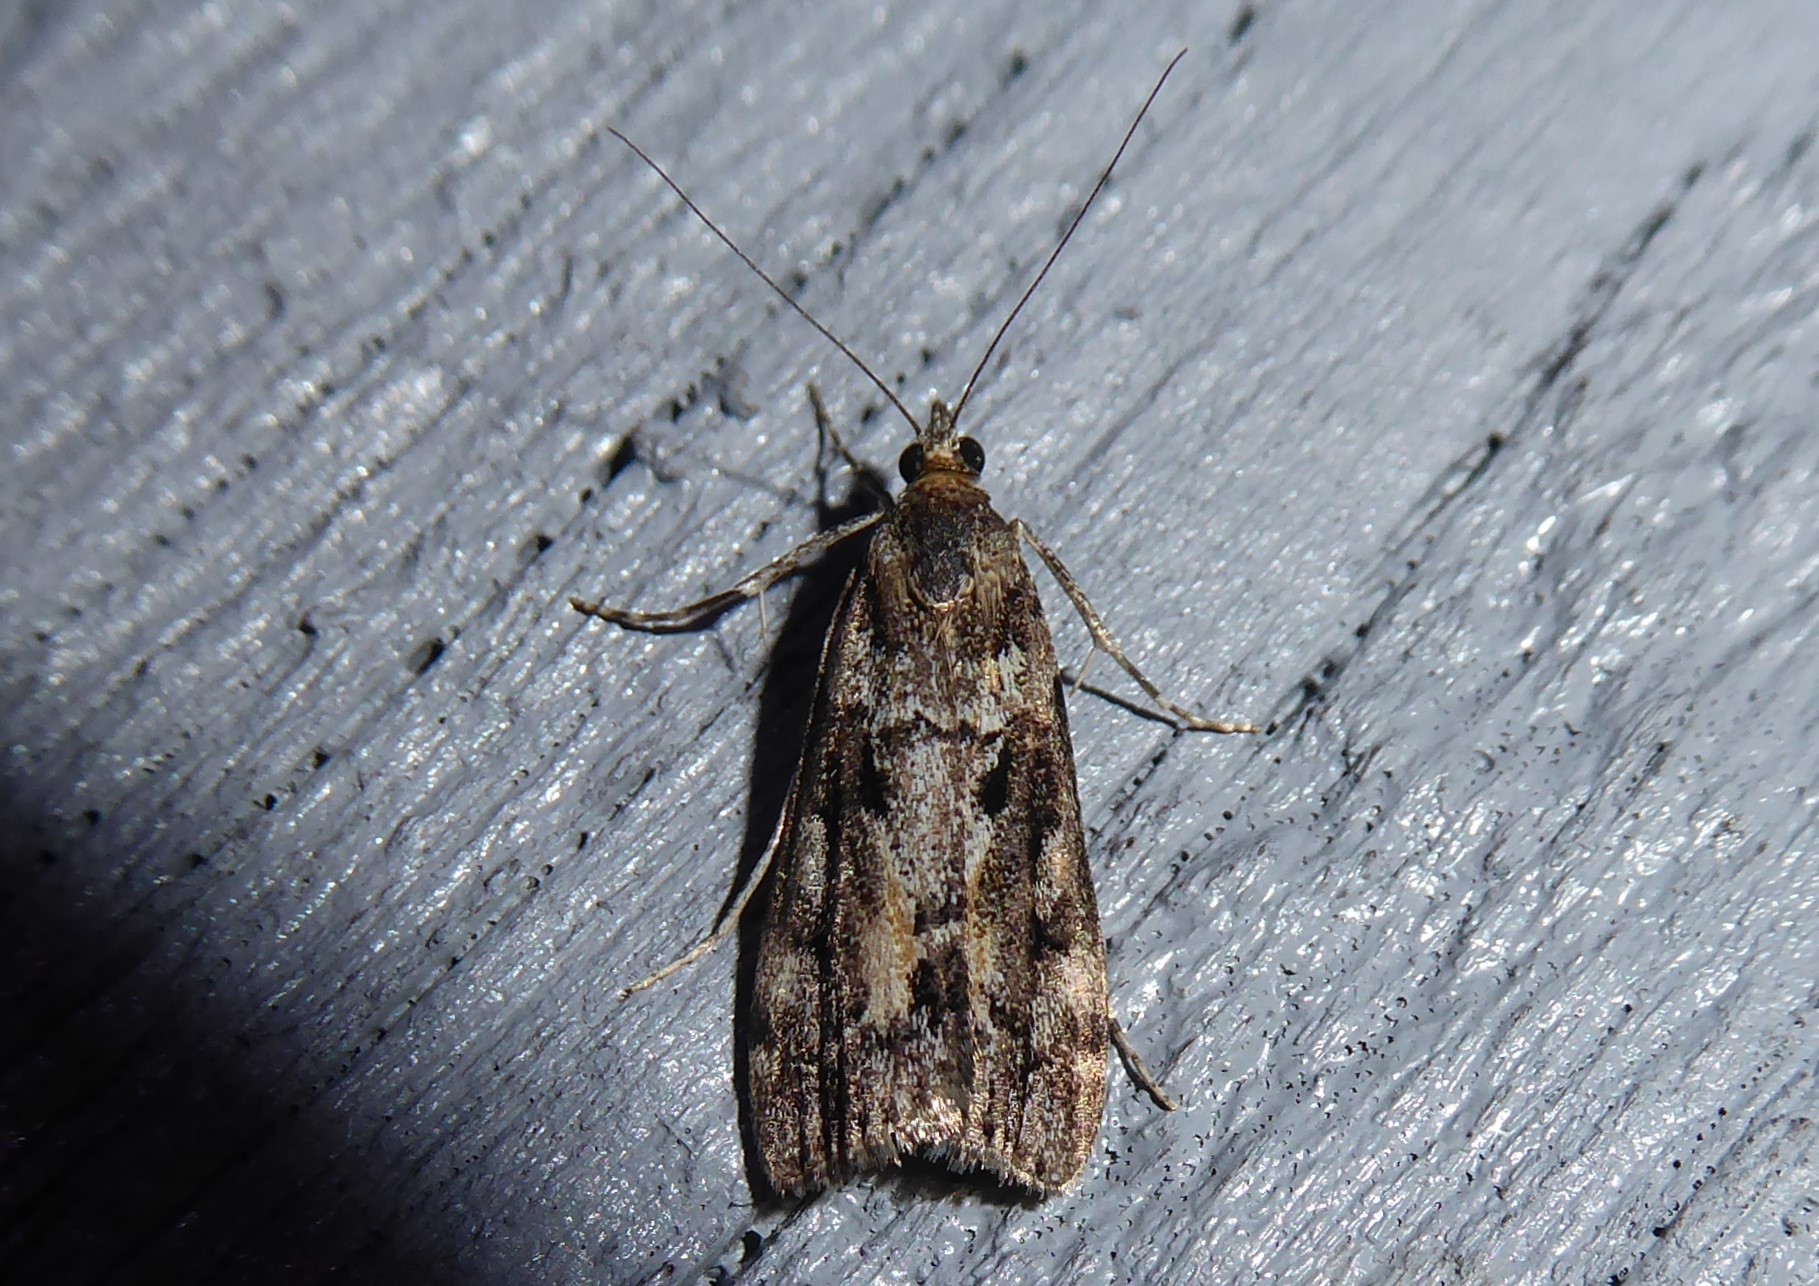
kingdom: Animalia
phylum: Arthropoda
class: Insecta
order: Lepidoptera
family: Crambidae
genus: Eudonia
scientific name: Eudonia submarginalis
